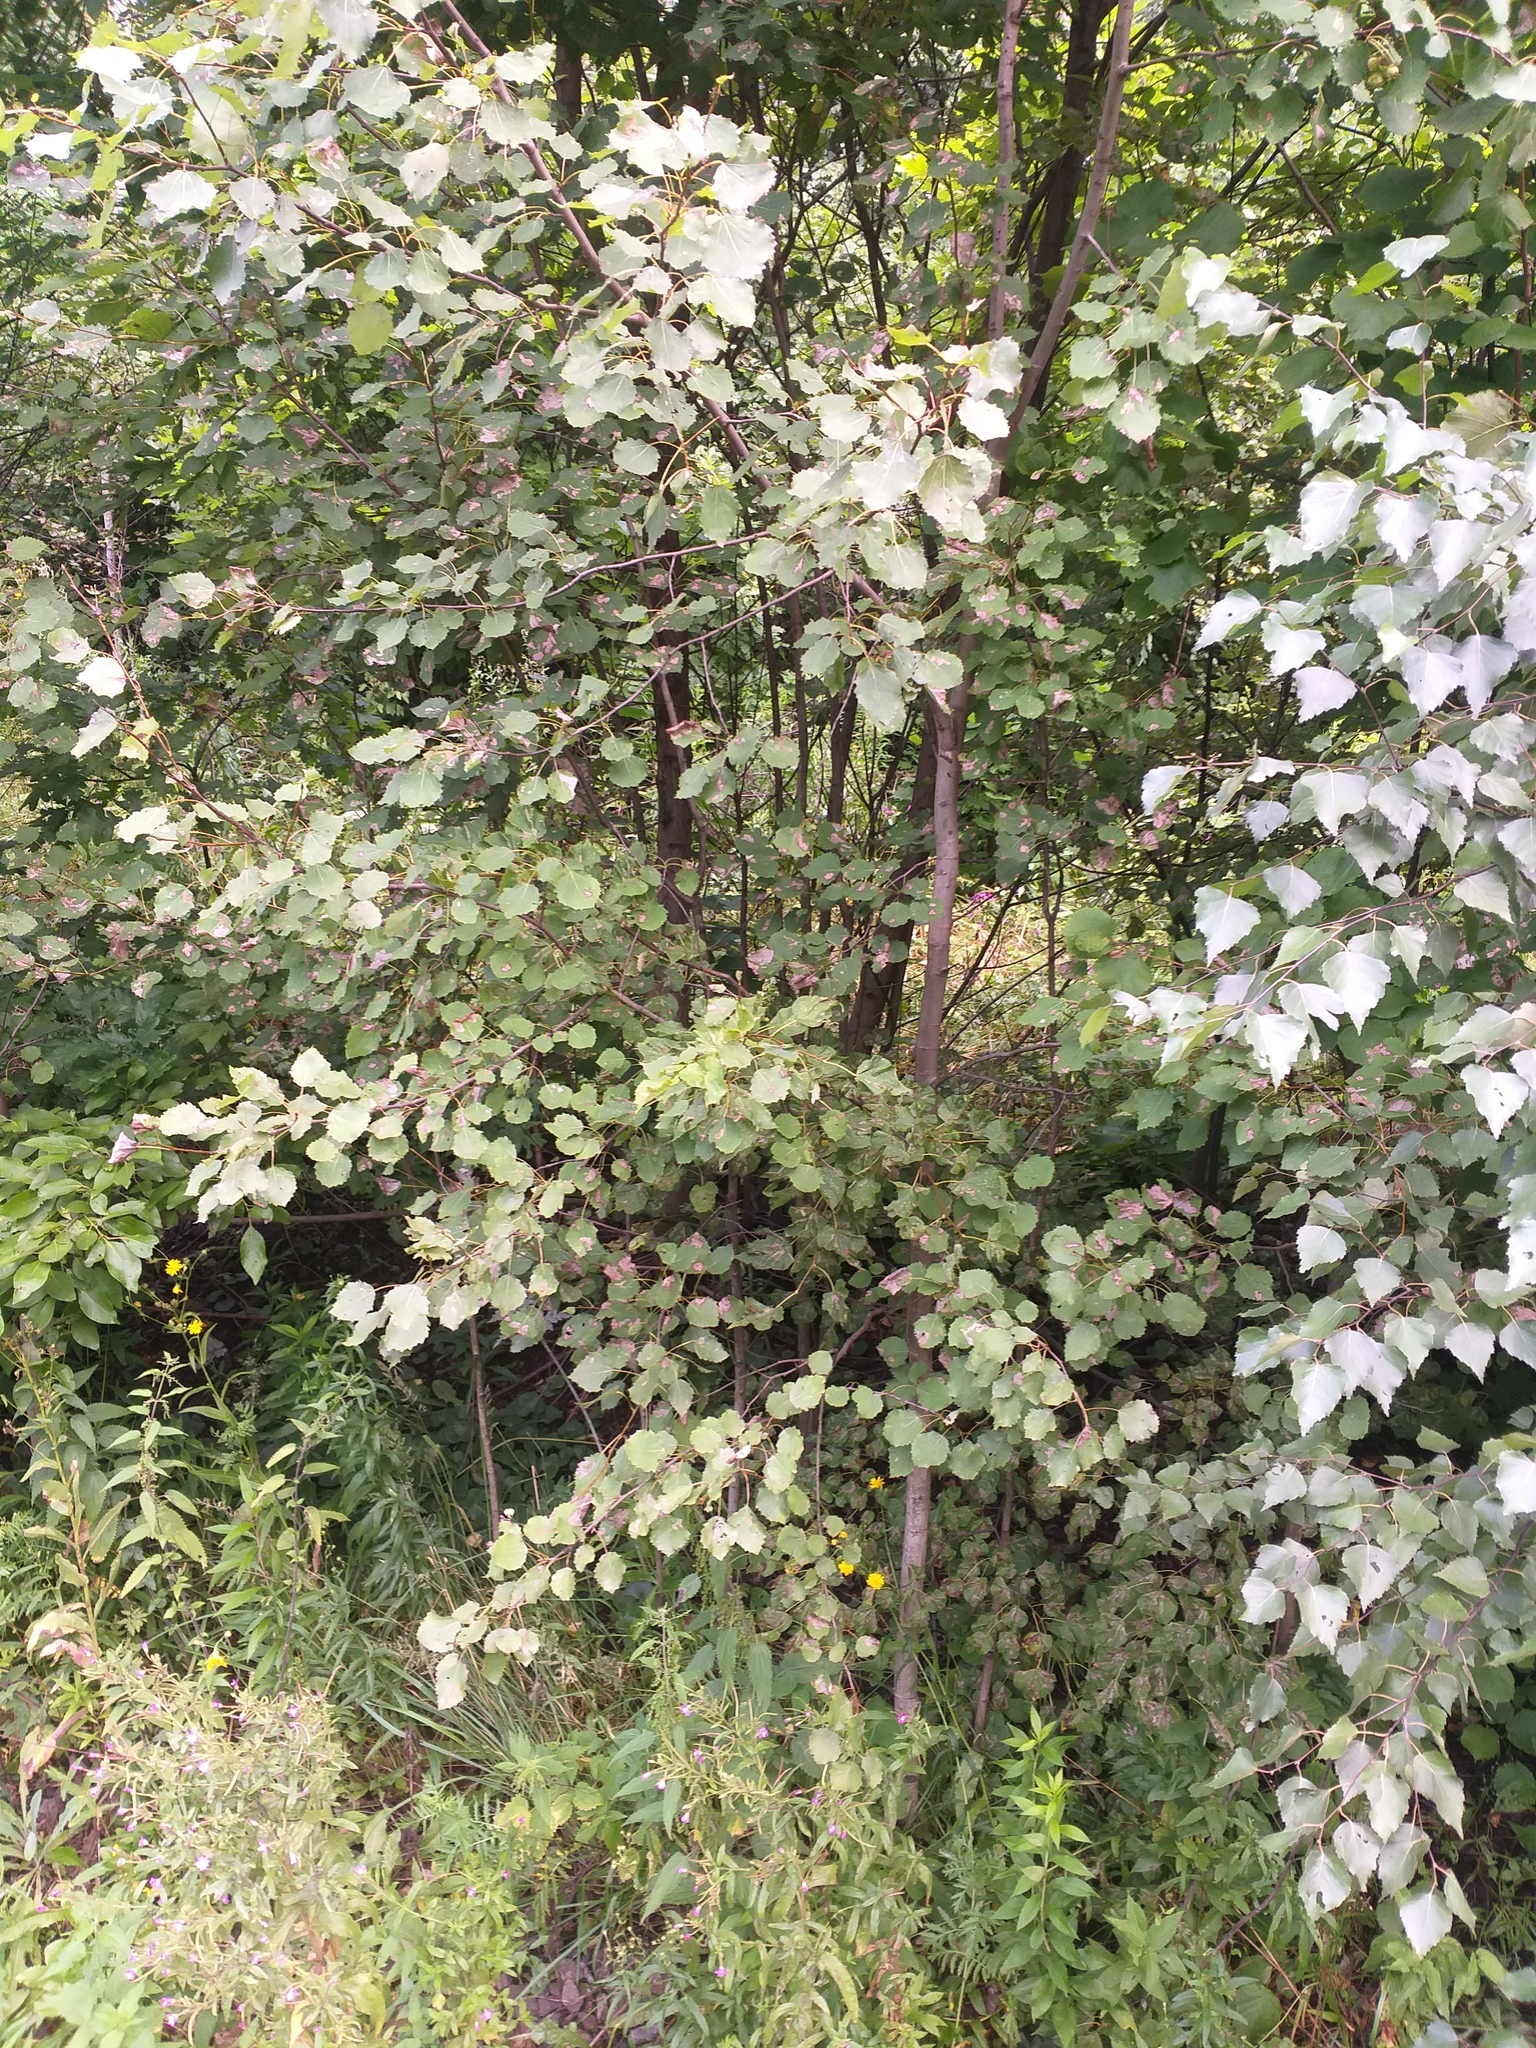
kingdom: Plantae
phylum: Tracheophyta
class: Magnoliopsida
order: Malpighiales
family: Salicaceae
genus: Populus
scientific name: Populus tremula
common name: European aspen
